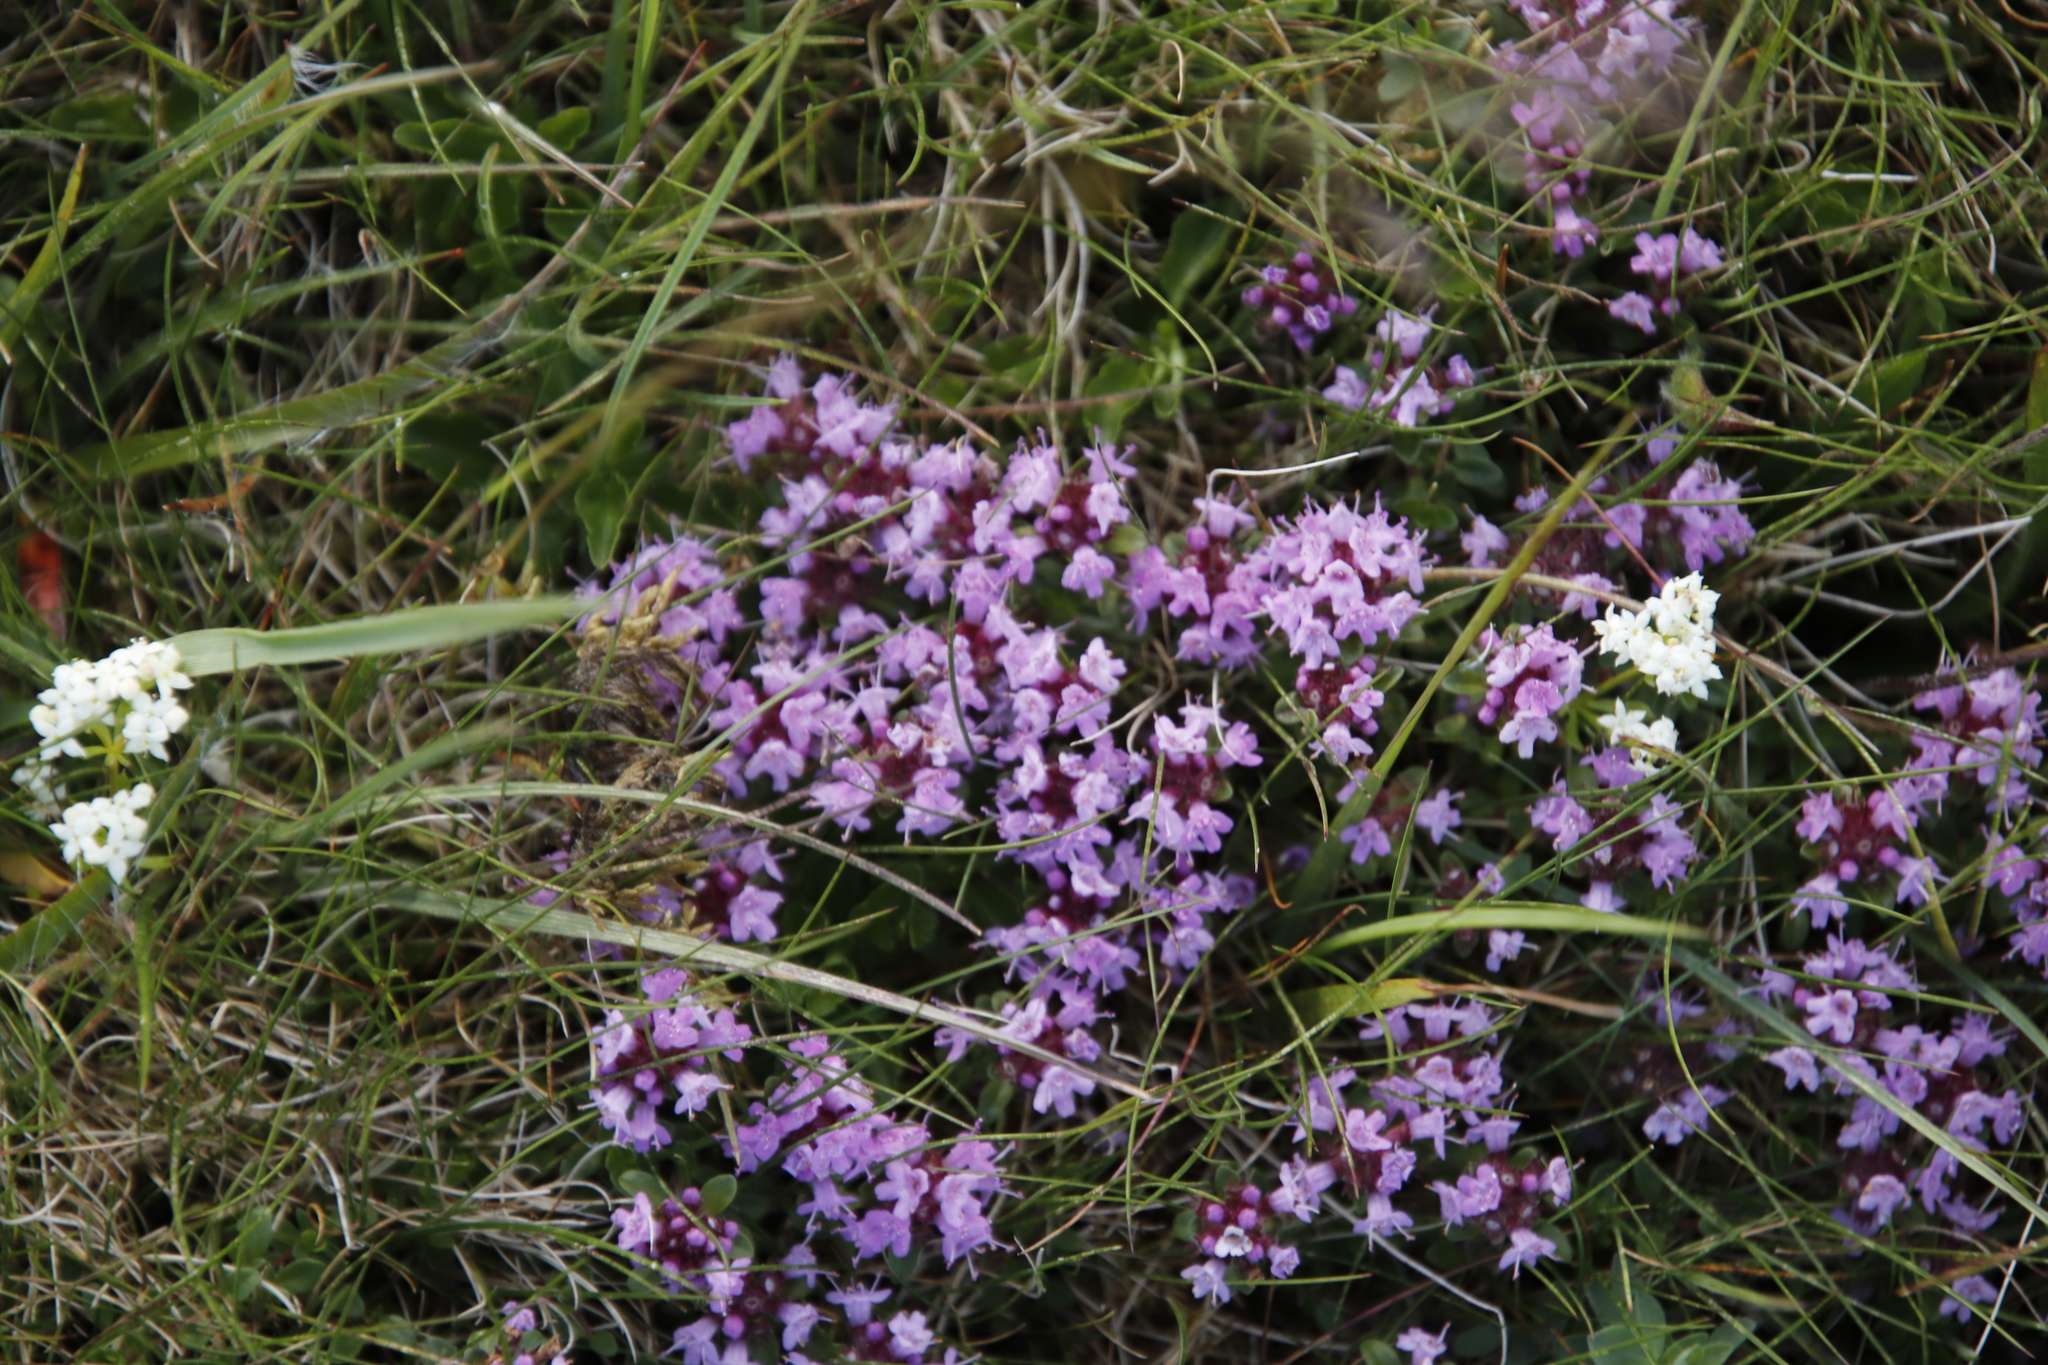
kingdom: Plantae
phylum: Tracheophyta
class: Magnoliopsida
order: Lamiales
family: Lamiaceae
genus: Thymus
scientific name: Thymus praecox
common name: Wild thyme
